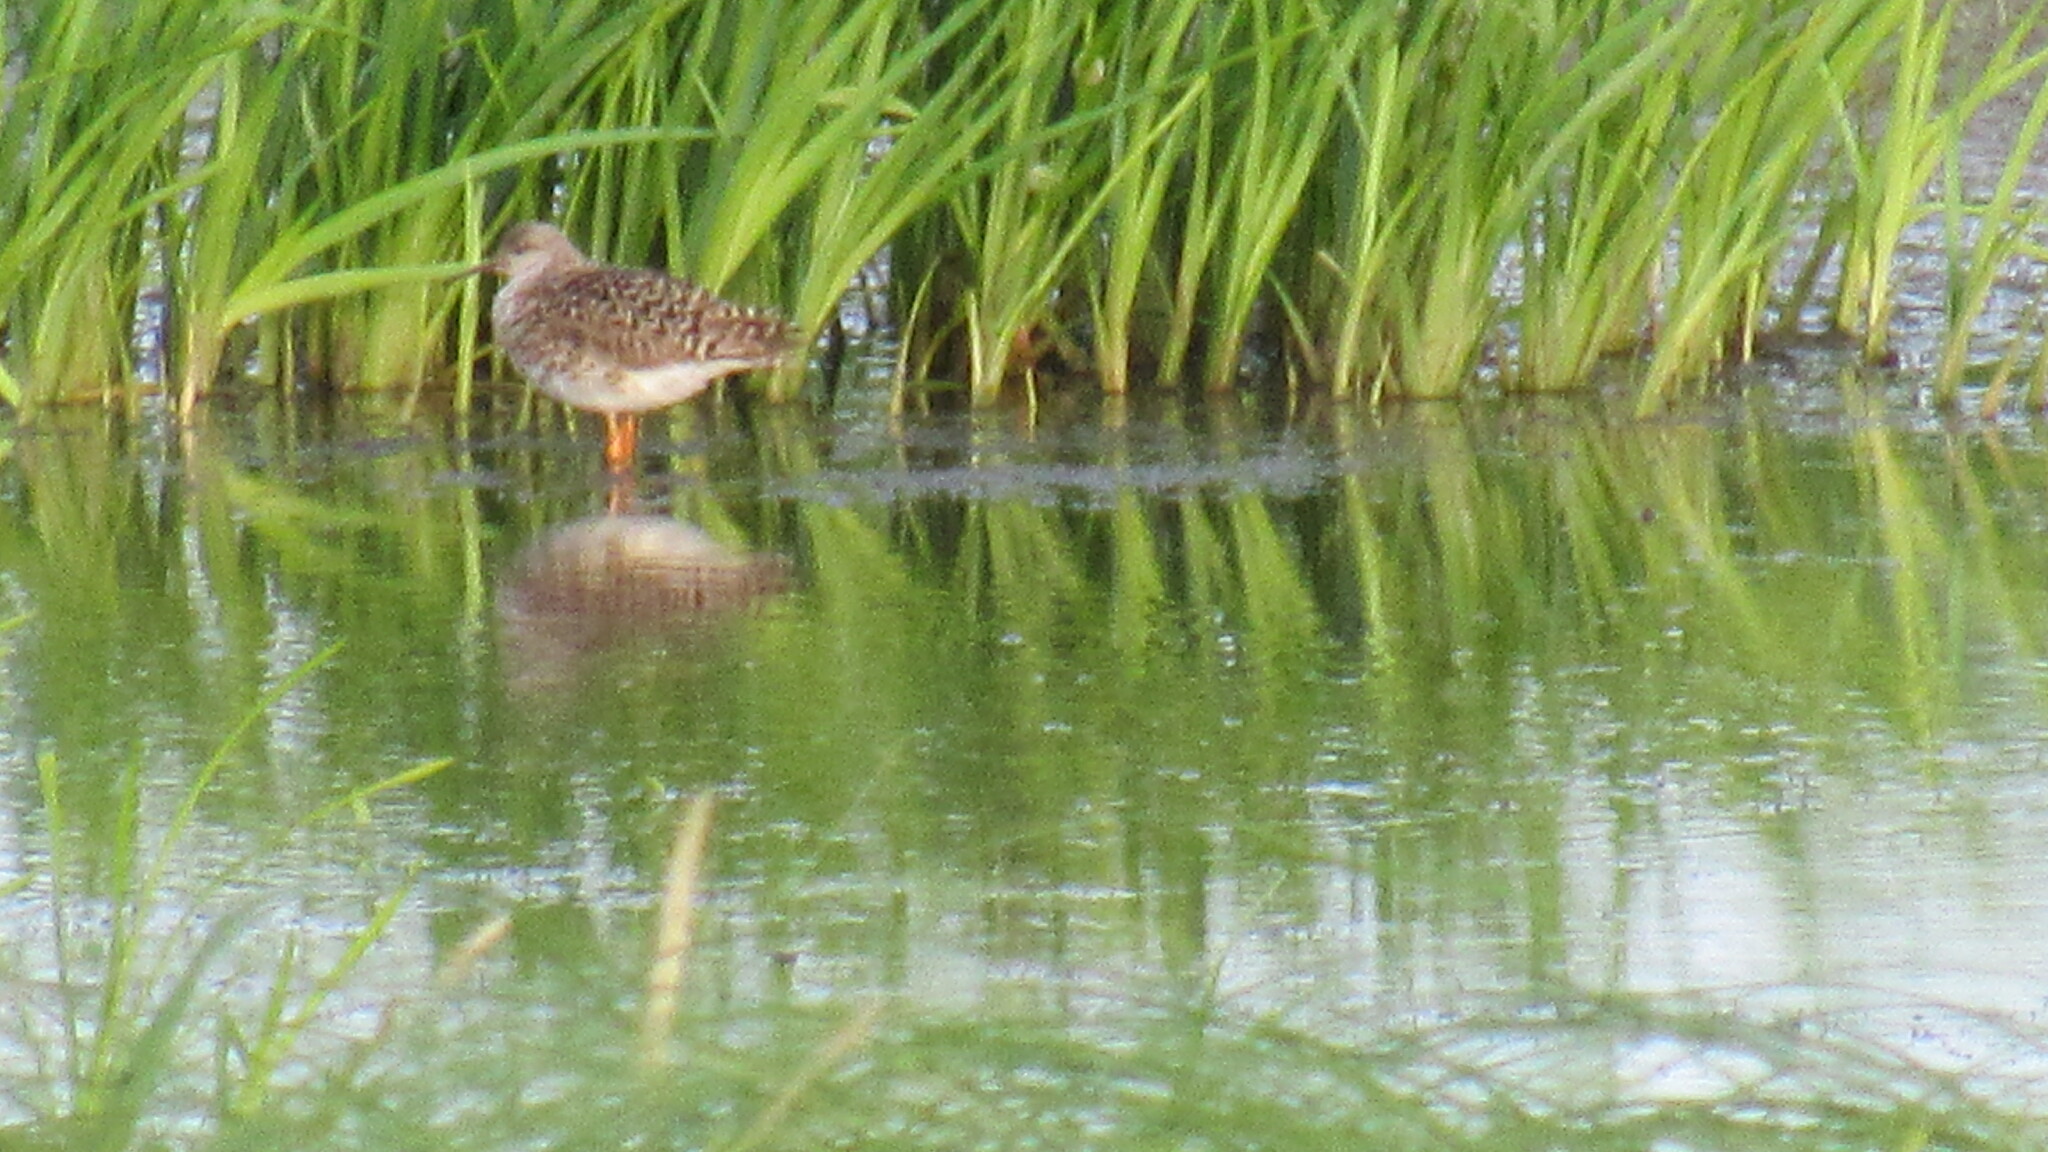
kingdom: Animalia
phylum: Chordata
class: Aves
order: Charadriiformes
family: Scolopacidae
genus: Tringa
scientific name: Tringa totanus
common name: Common redshank
